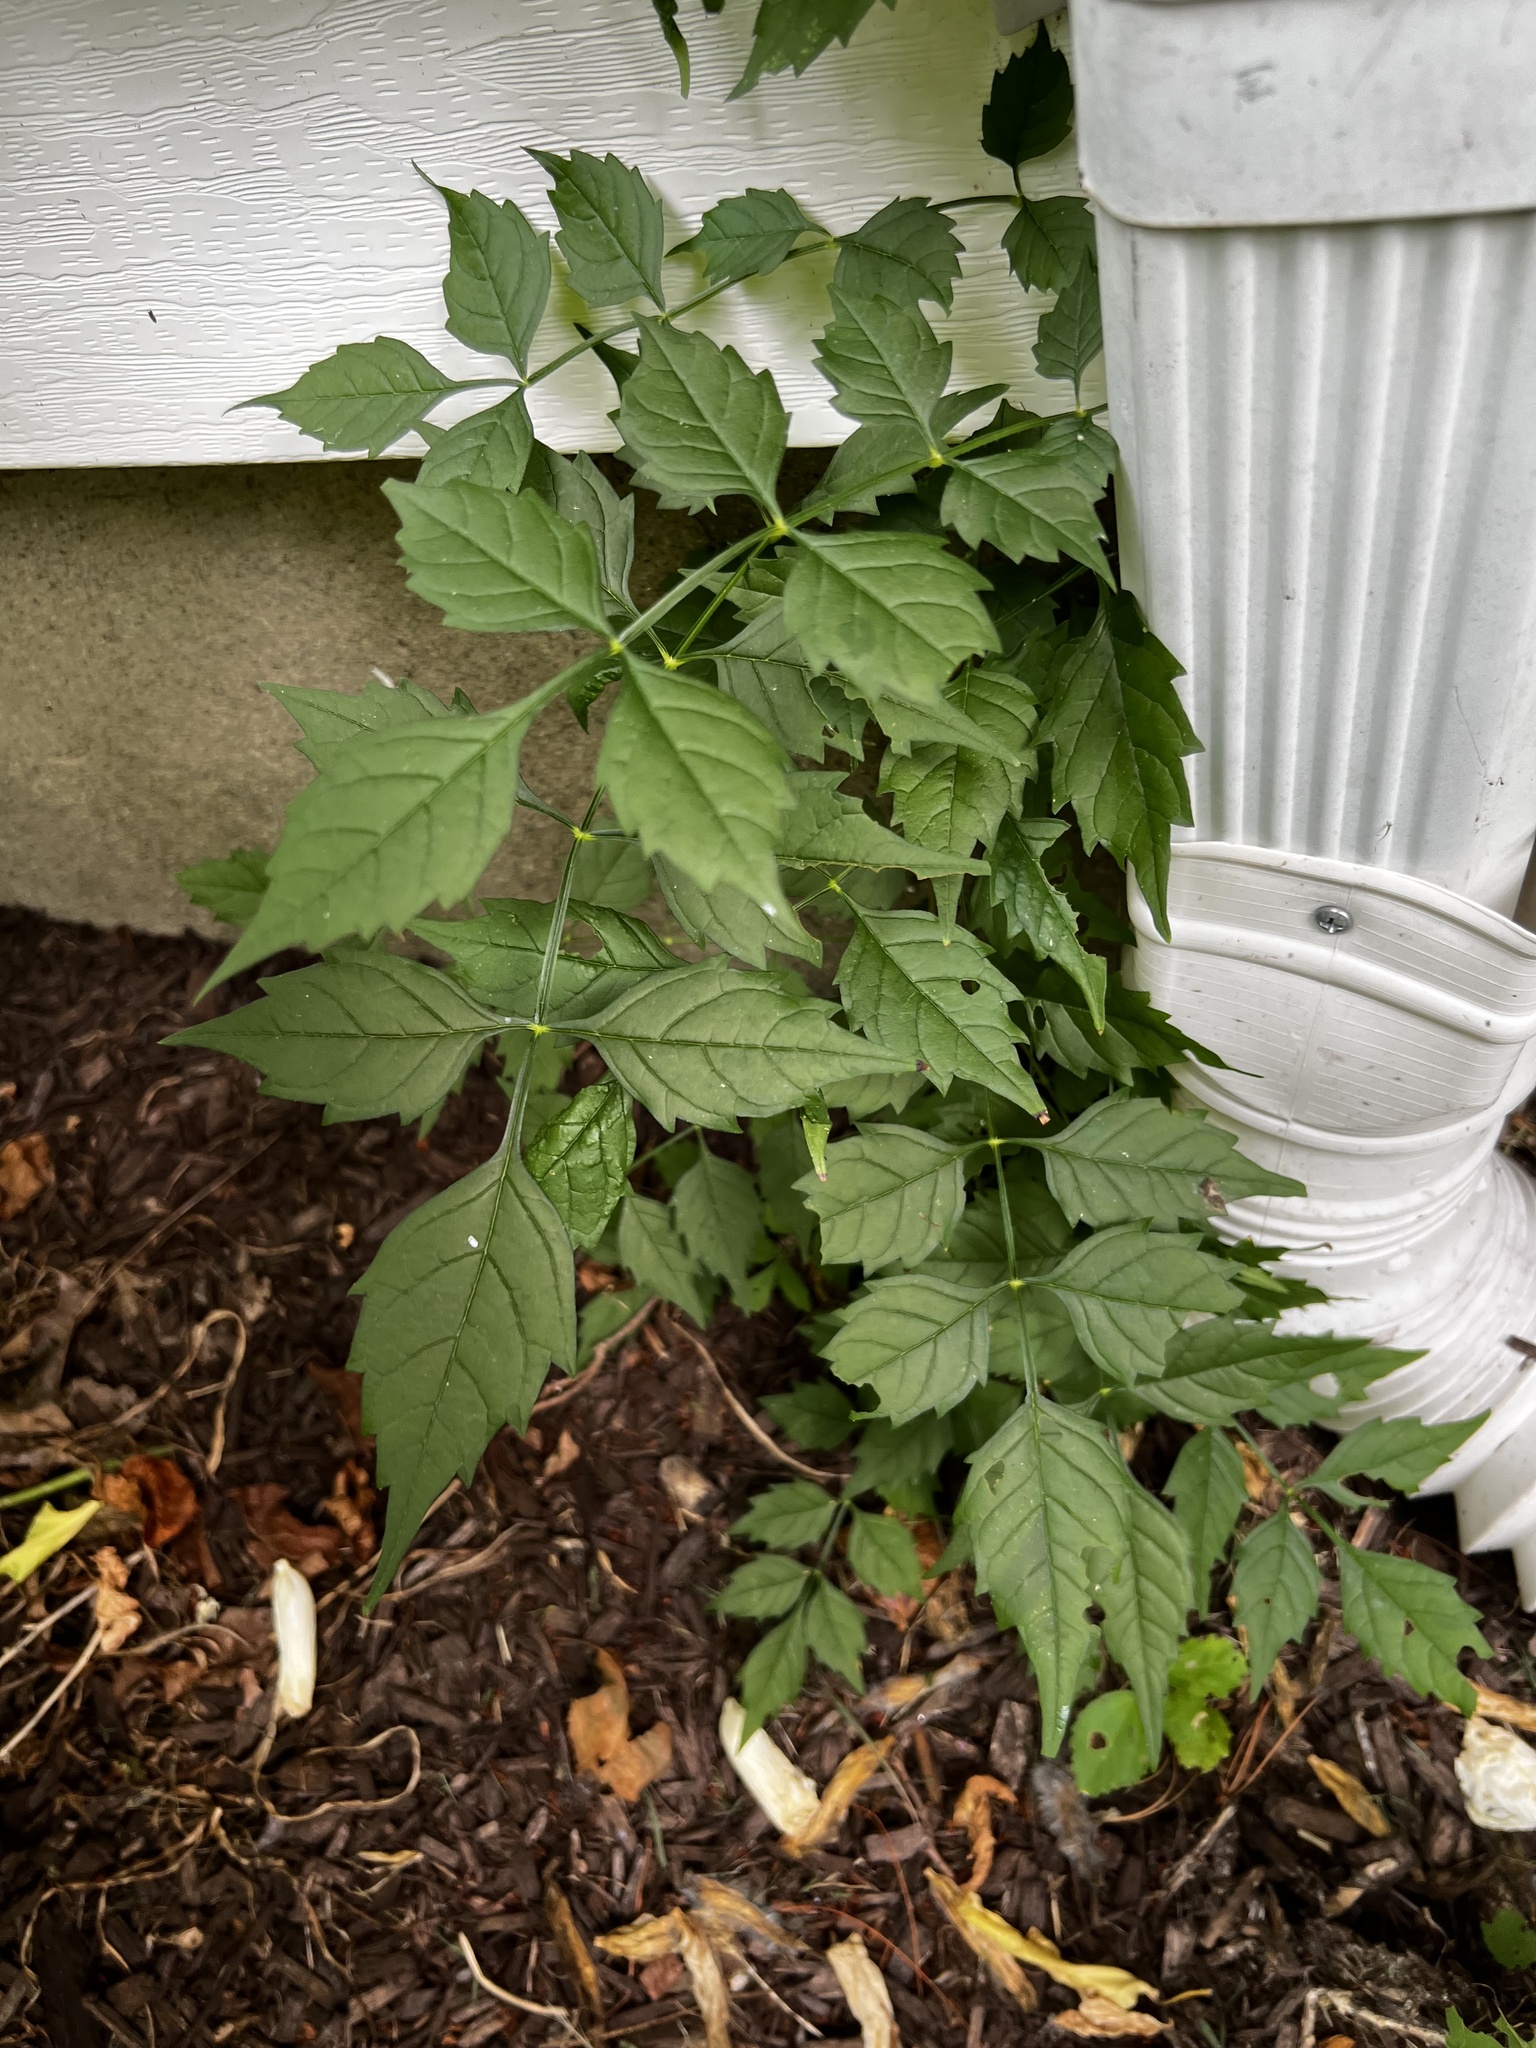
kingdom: Plantae
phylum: Tracheophyta
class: Magnoliopsida
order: Lamiales
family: Bignoniaceae
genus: Campsis
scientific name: Campsis radicans
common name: Trumpet-creeper
